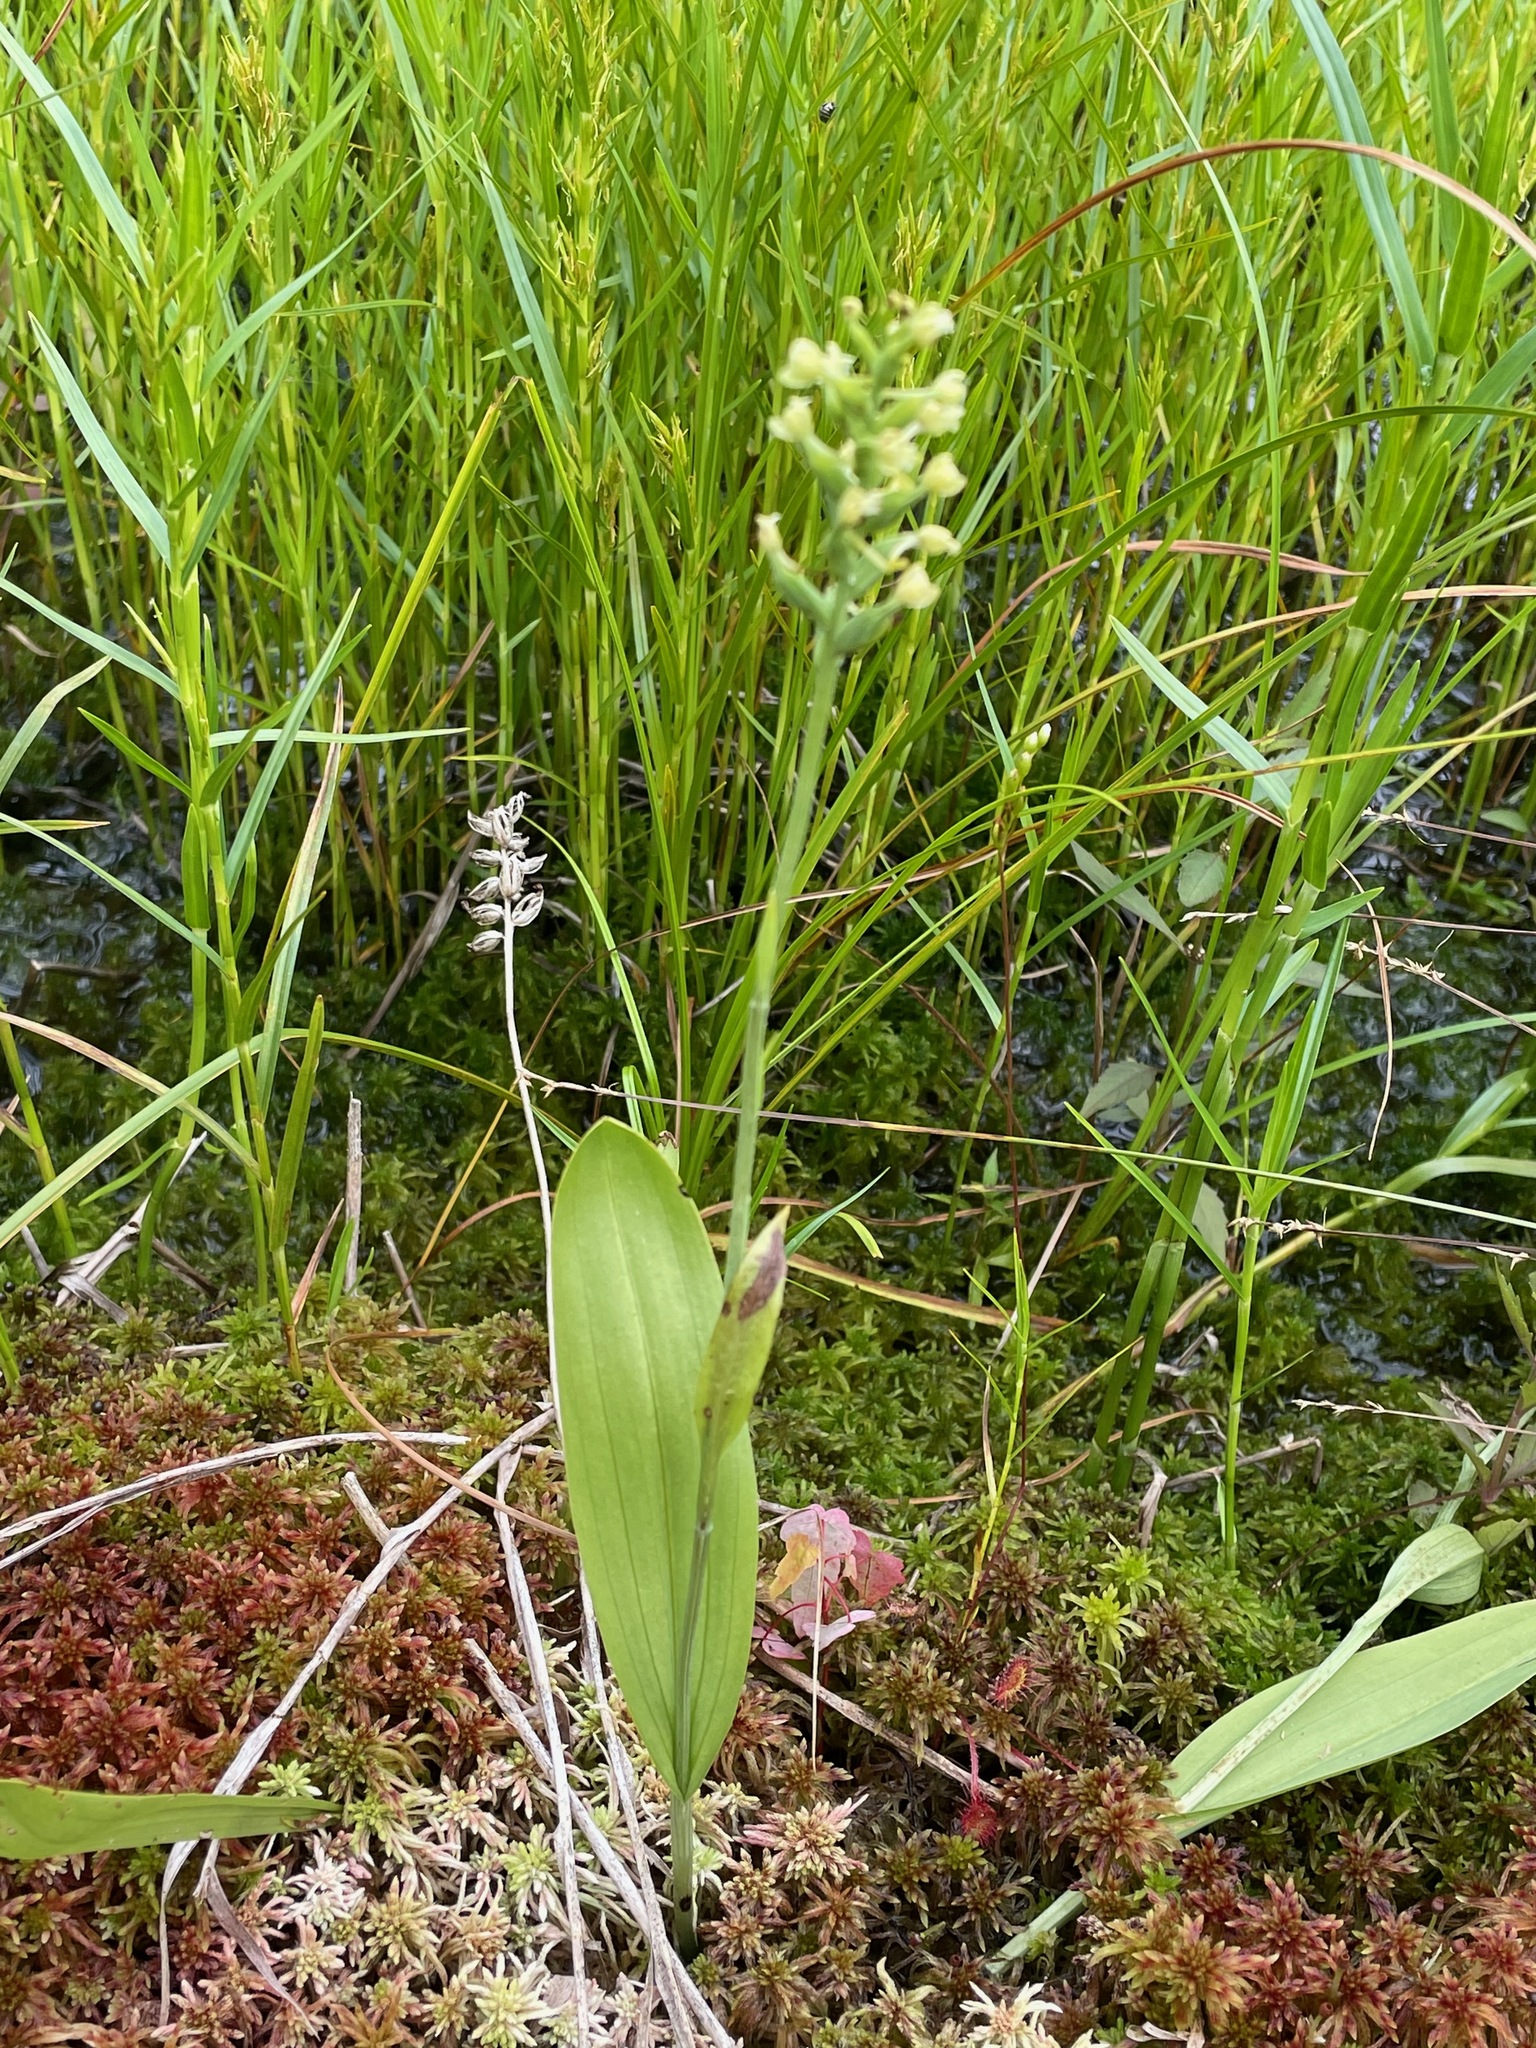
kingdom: Plantae
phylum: Tracheophyta
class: Liliopsida
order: Asparagales
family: Orchidaceae
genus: Platanthera
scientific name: Platanthera clavellata
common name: Club-spur orchid
